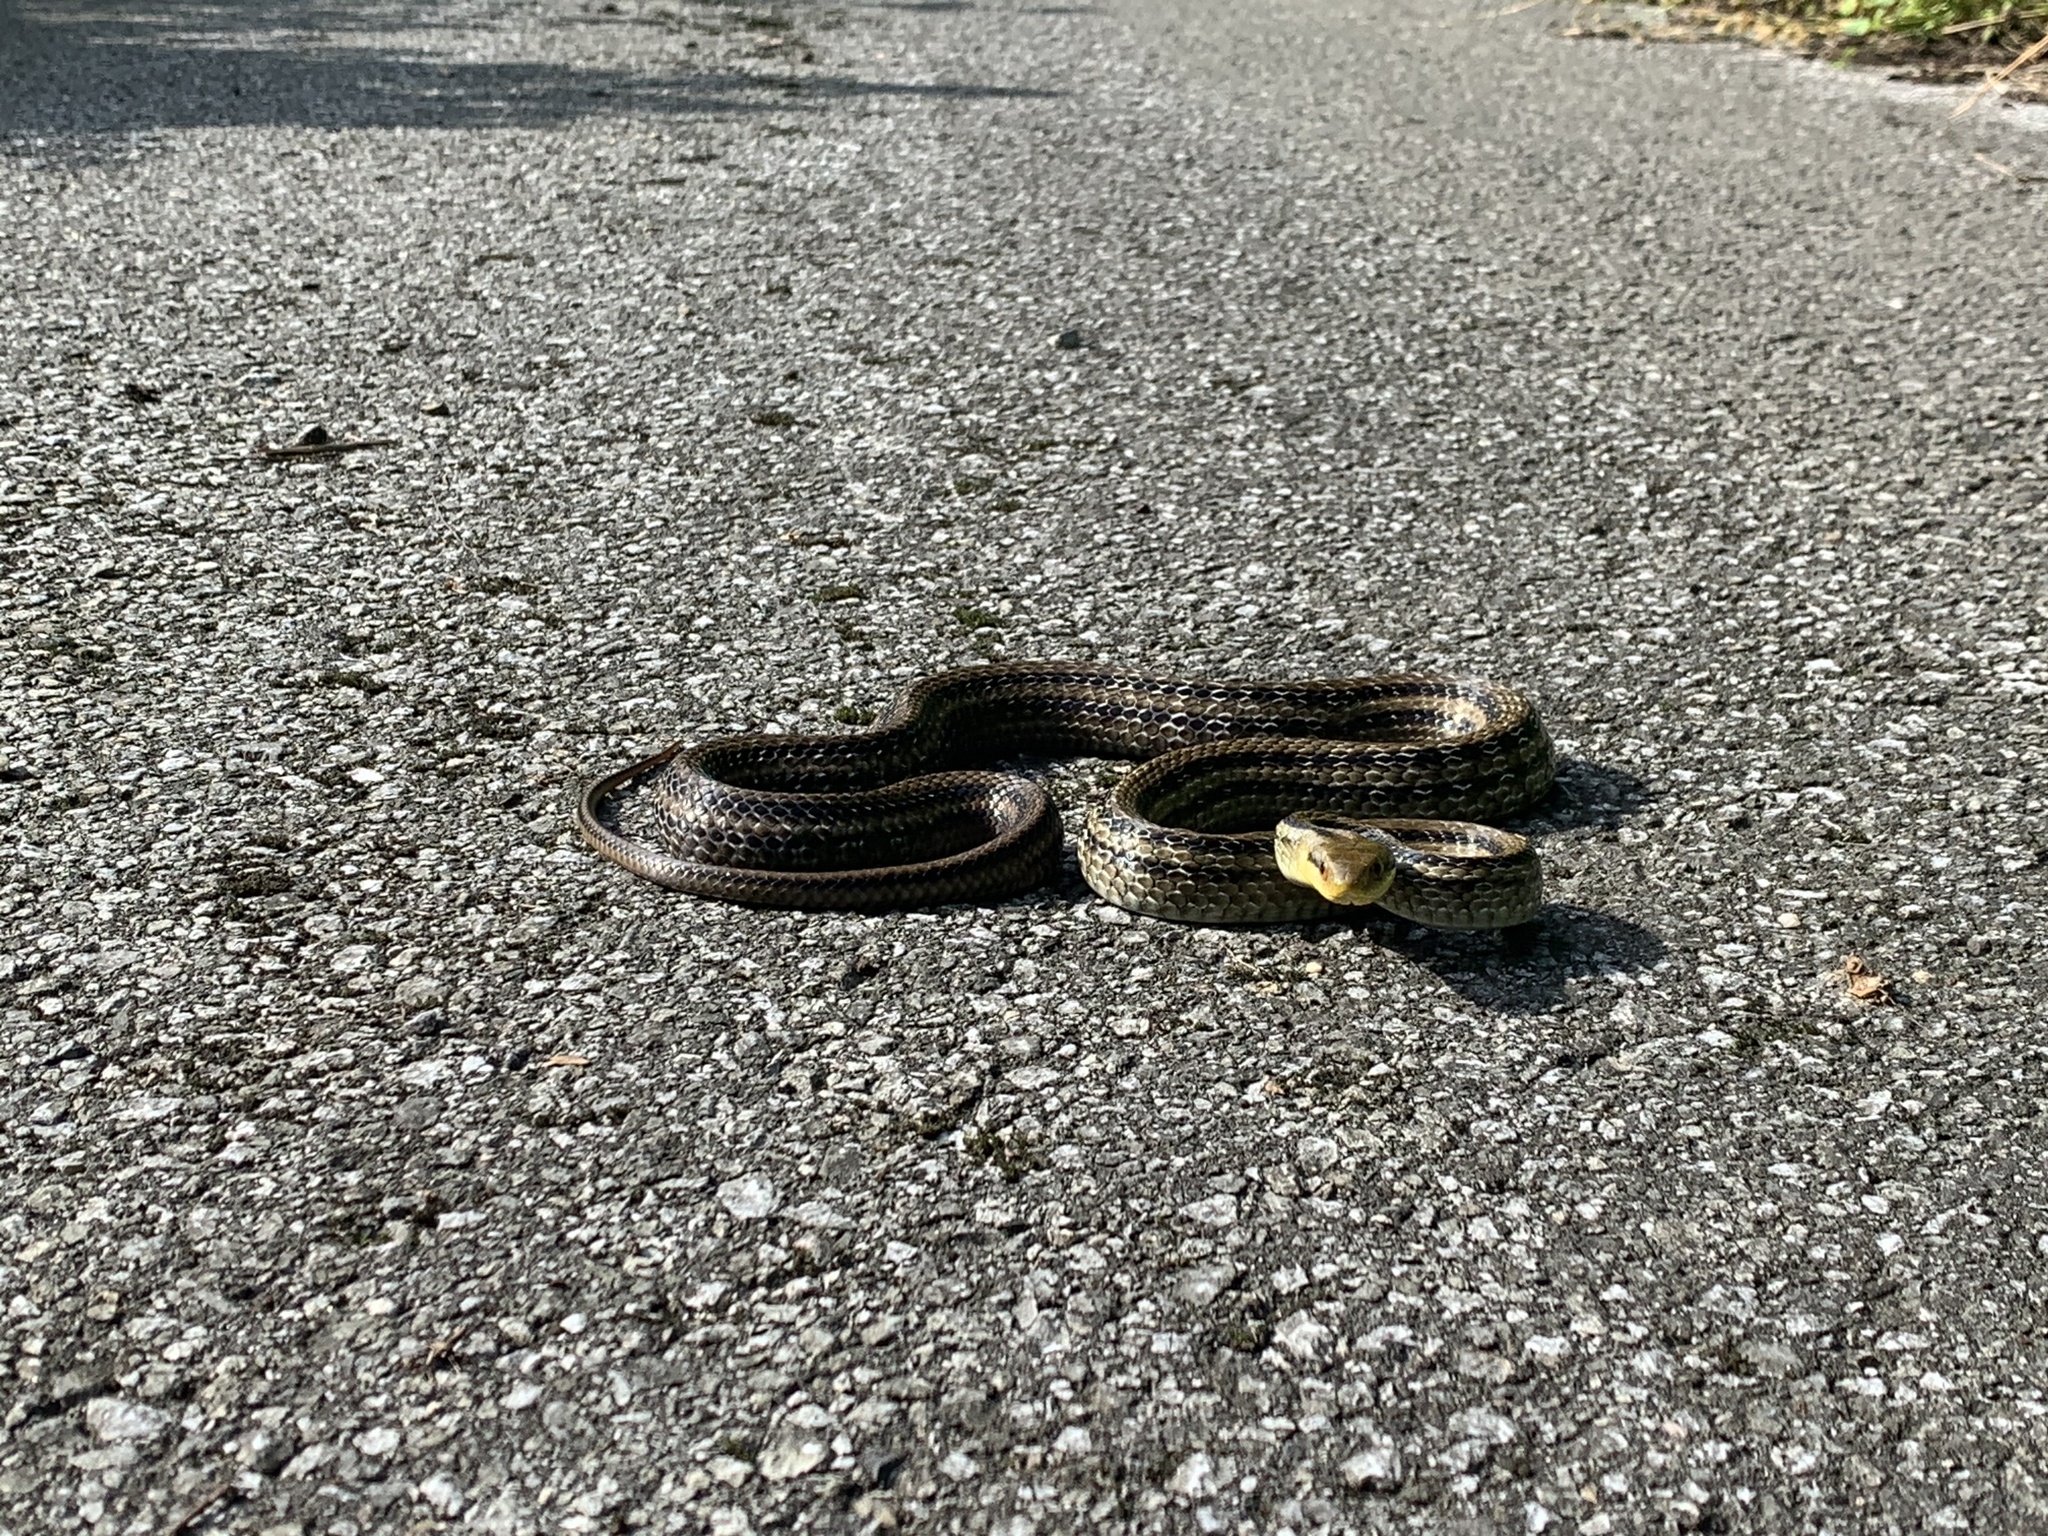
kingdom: Animalia
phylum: Chordata
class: Squamata
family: Colubridae
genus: Elaphe
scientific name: Elaphe quadrivirgata
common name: Japanese four-lined ratsnake
